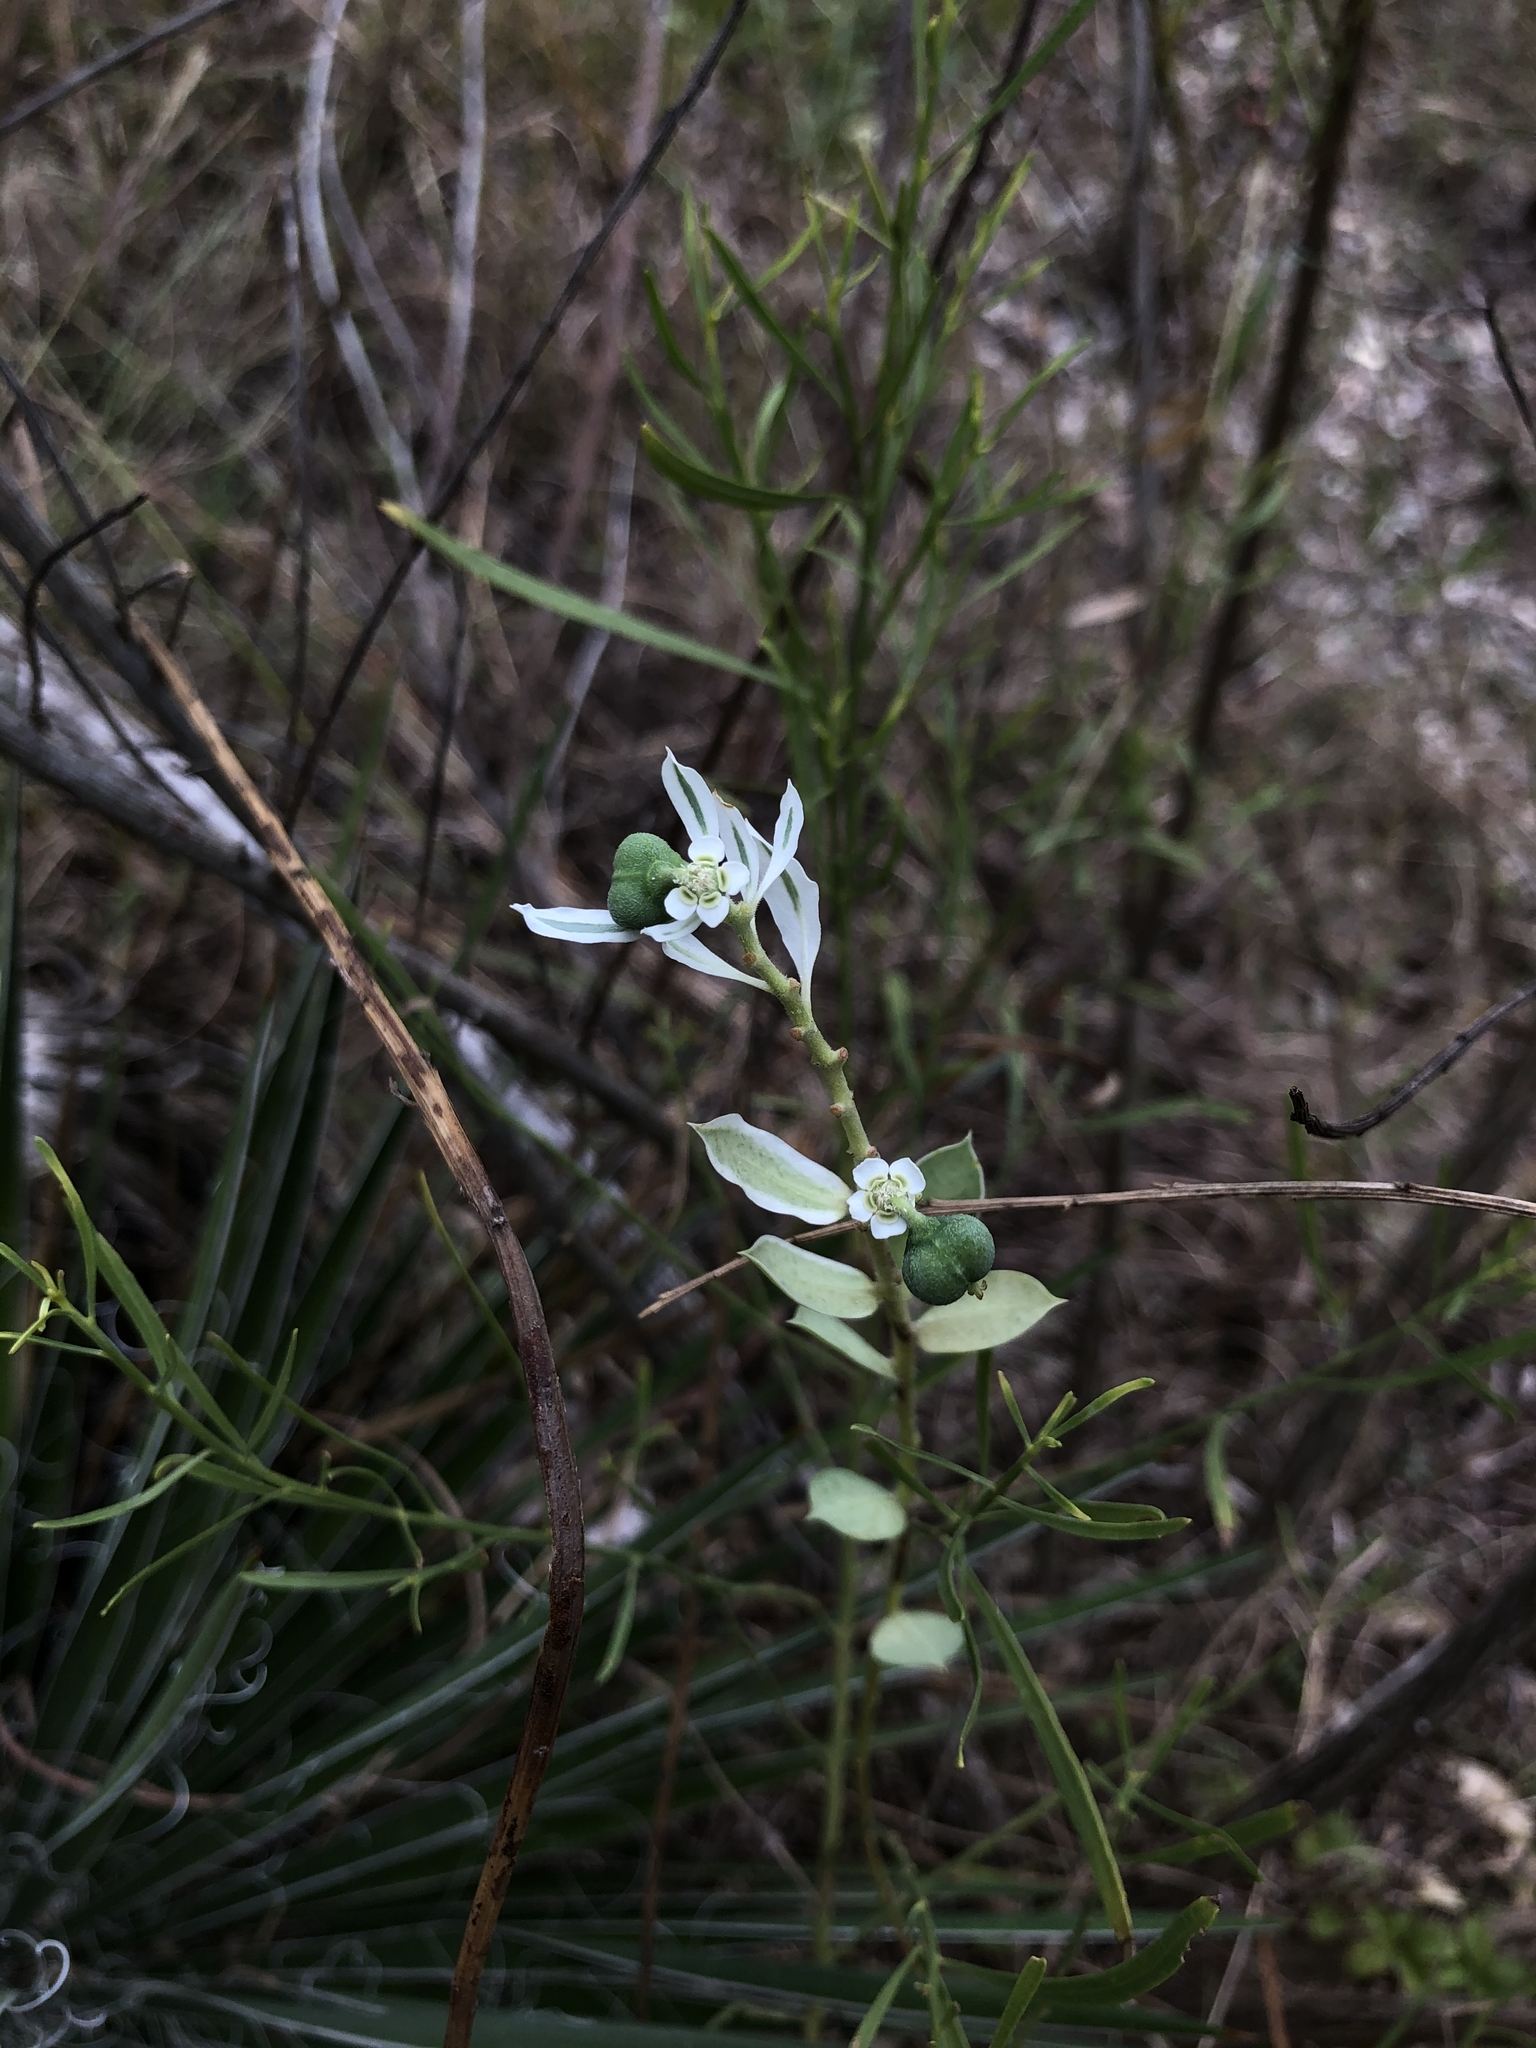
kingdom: Plantae
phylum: Tracheophyta
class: Magnoliopsida
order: Malpighiales
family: Euphorbiaceae
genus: Euphorbia
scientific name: Euphorbia marginata
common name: Ghostweed
